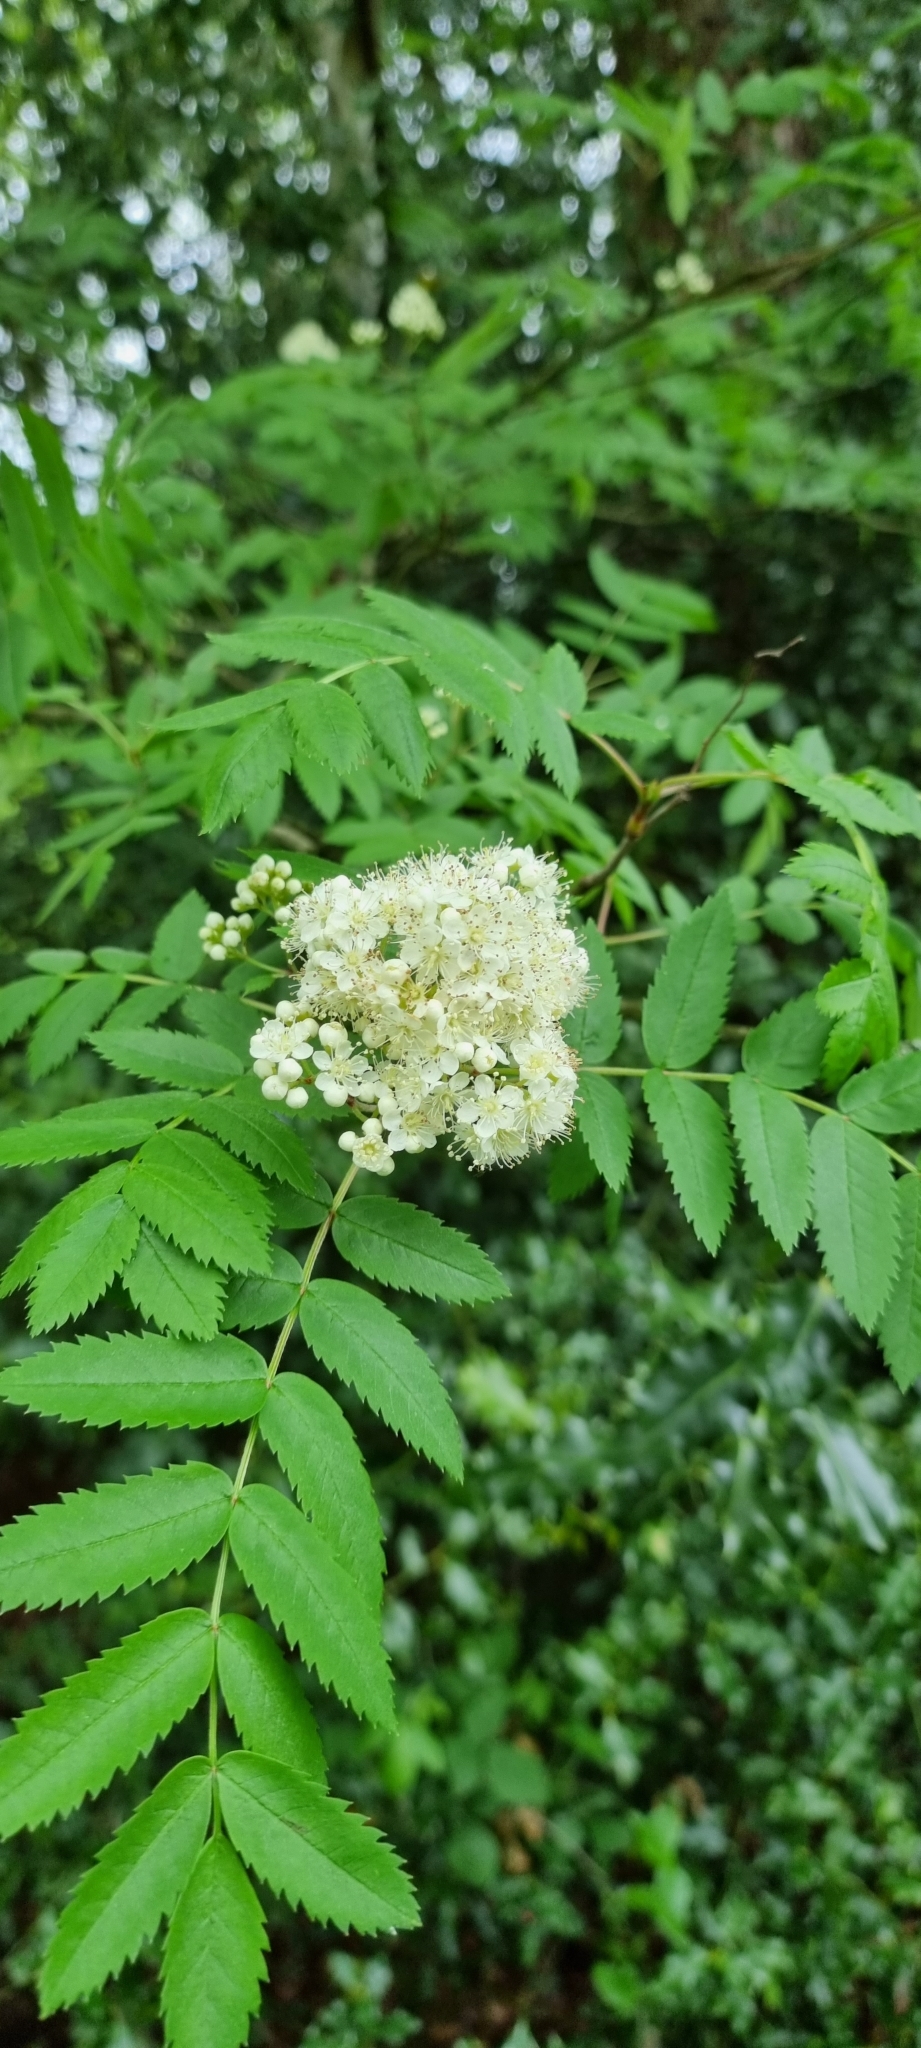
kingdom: Plantae
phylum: Tracheophyta
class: Magnoliopsida
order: Rosales
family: Rosaceae
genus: Sorbus
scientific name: Sorbus aucuparia
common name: Rowan
